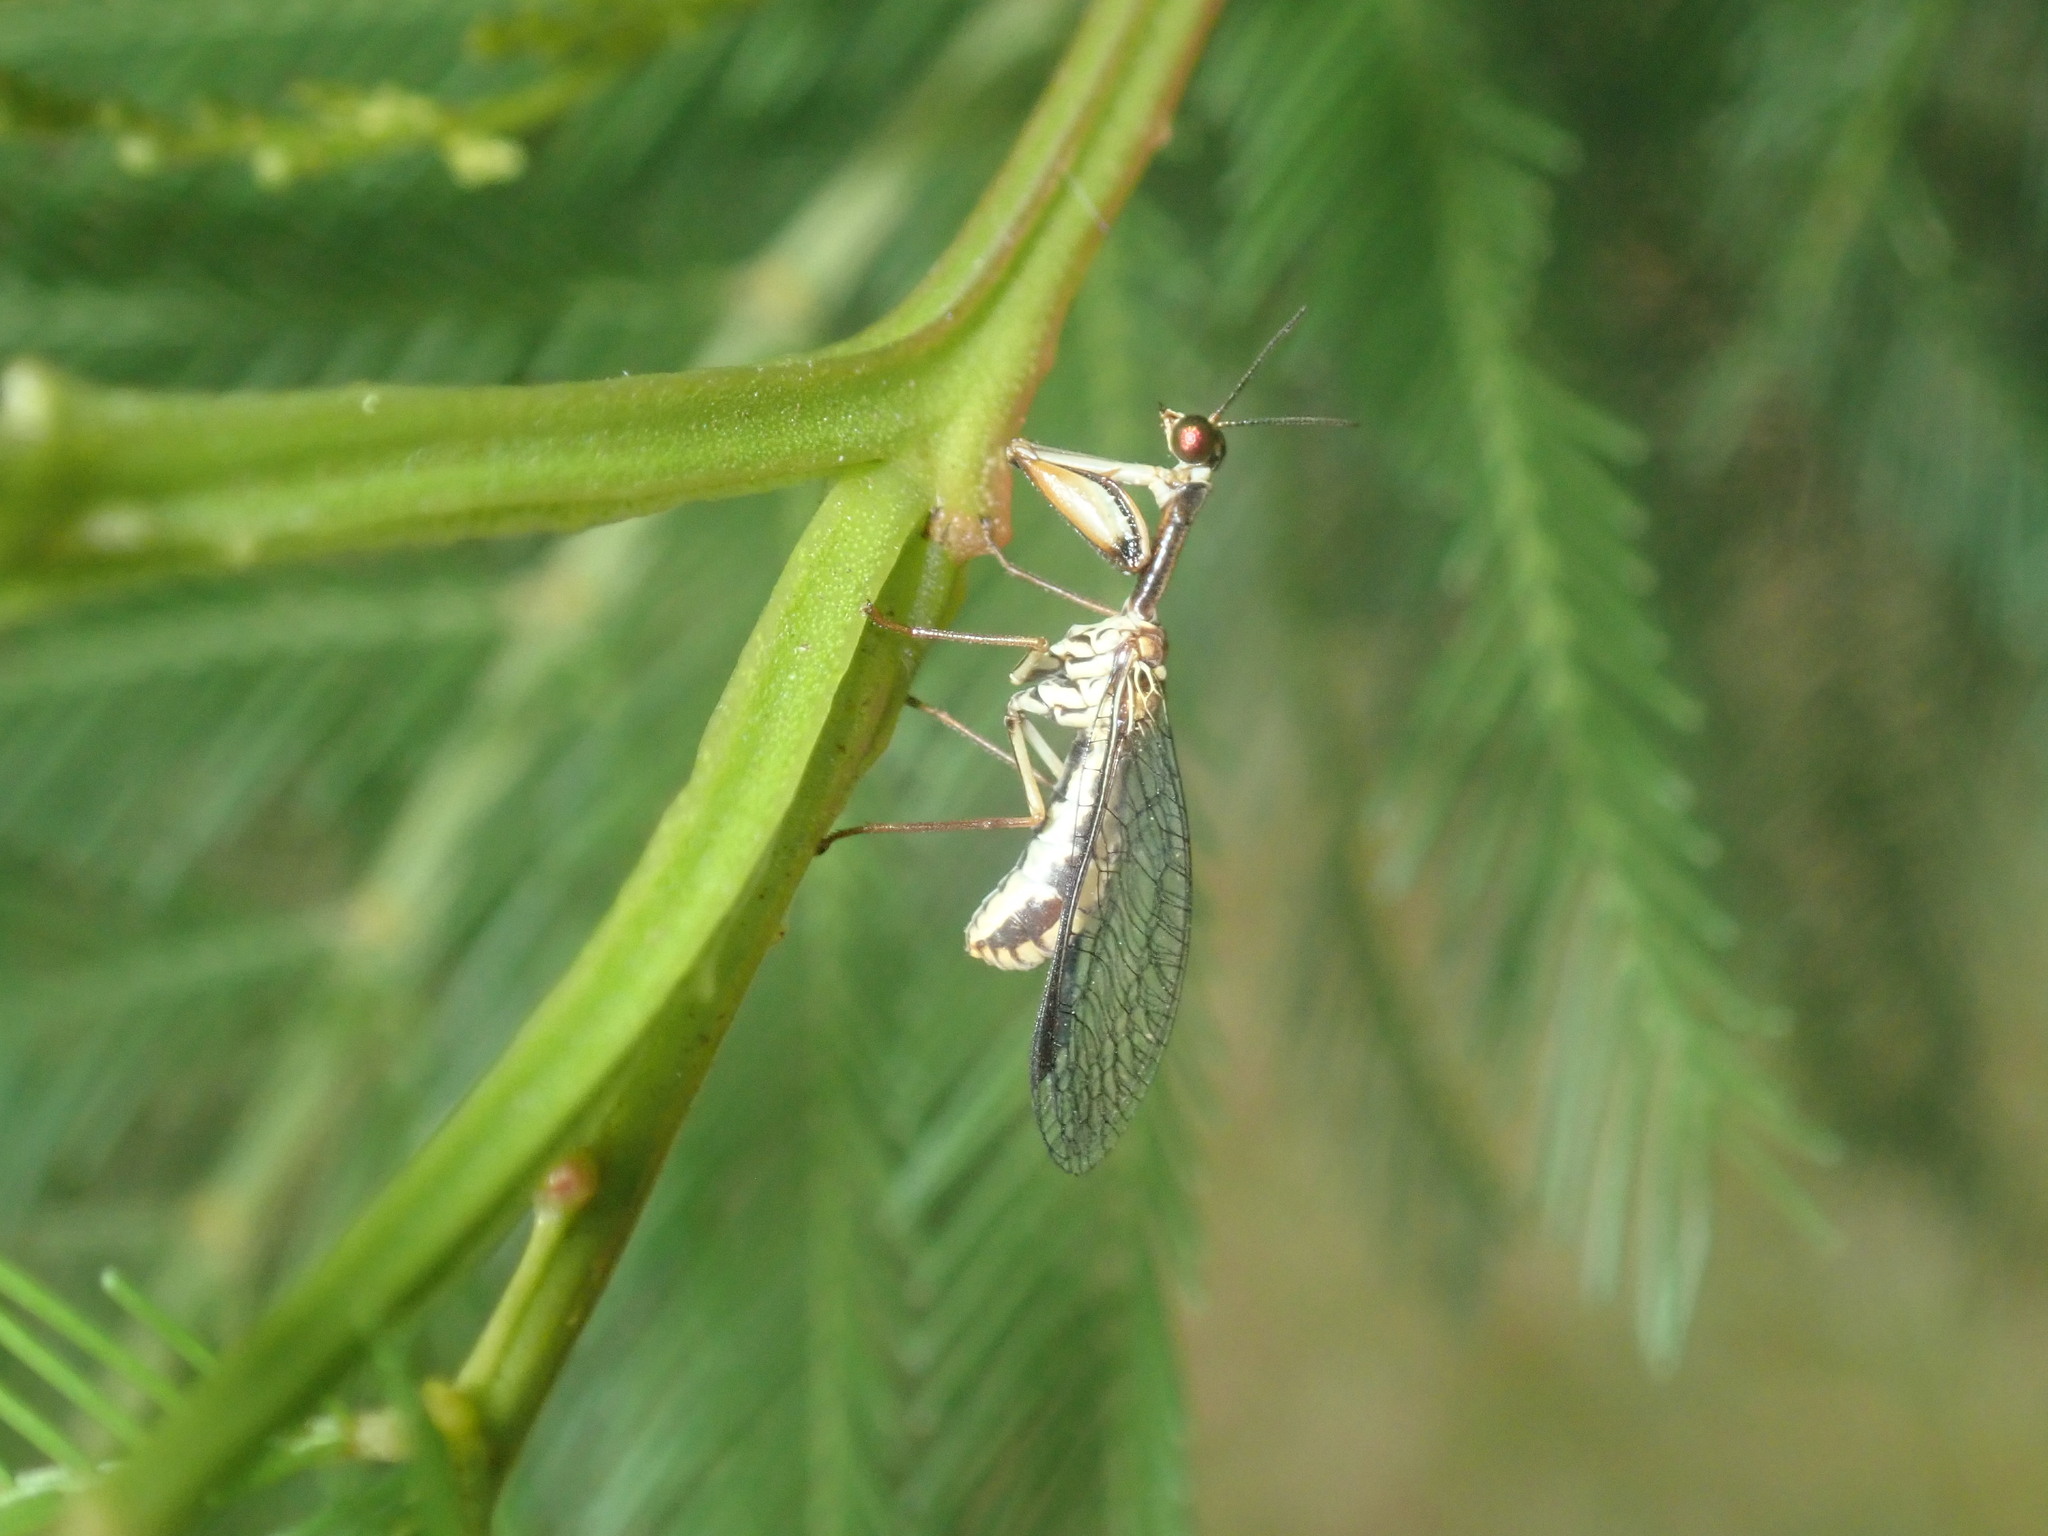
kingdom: Animalia
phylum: Arthropoda
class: Insecta
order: Neuroptera
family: Mantispidae
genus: Spaminta
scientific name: Spaminta minjerribae
